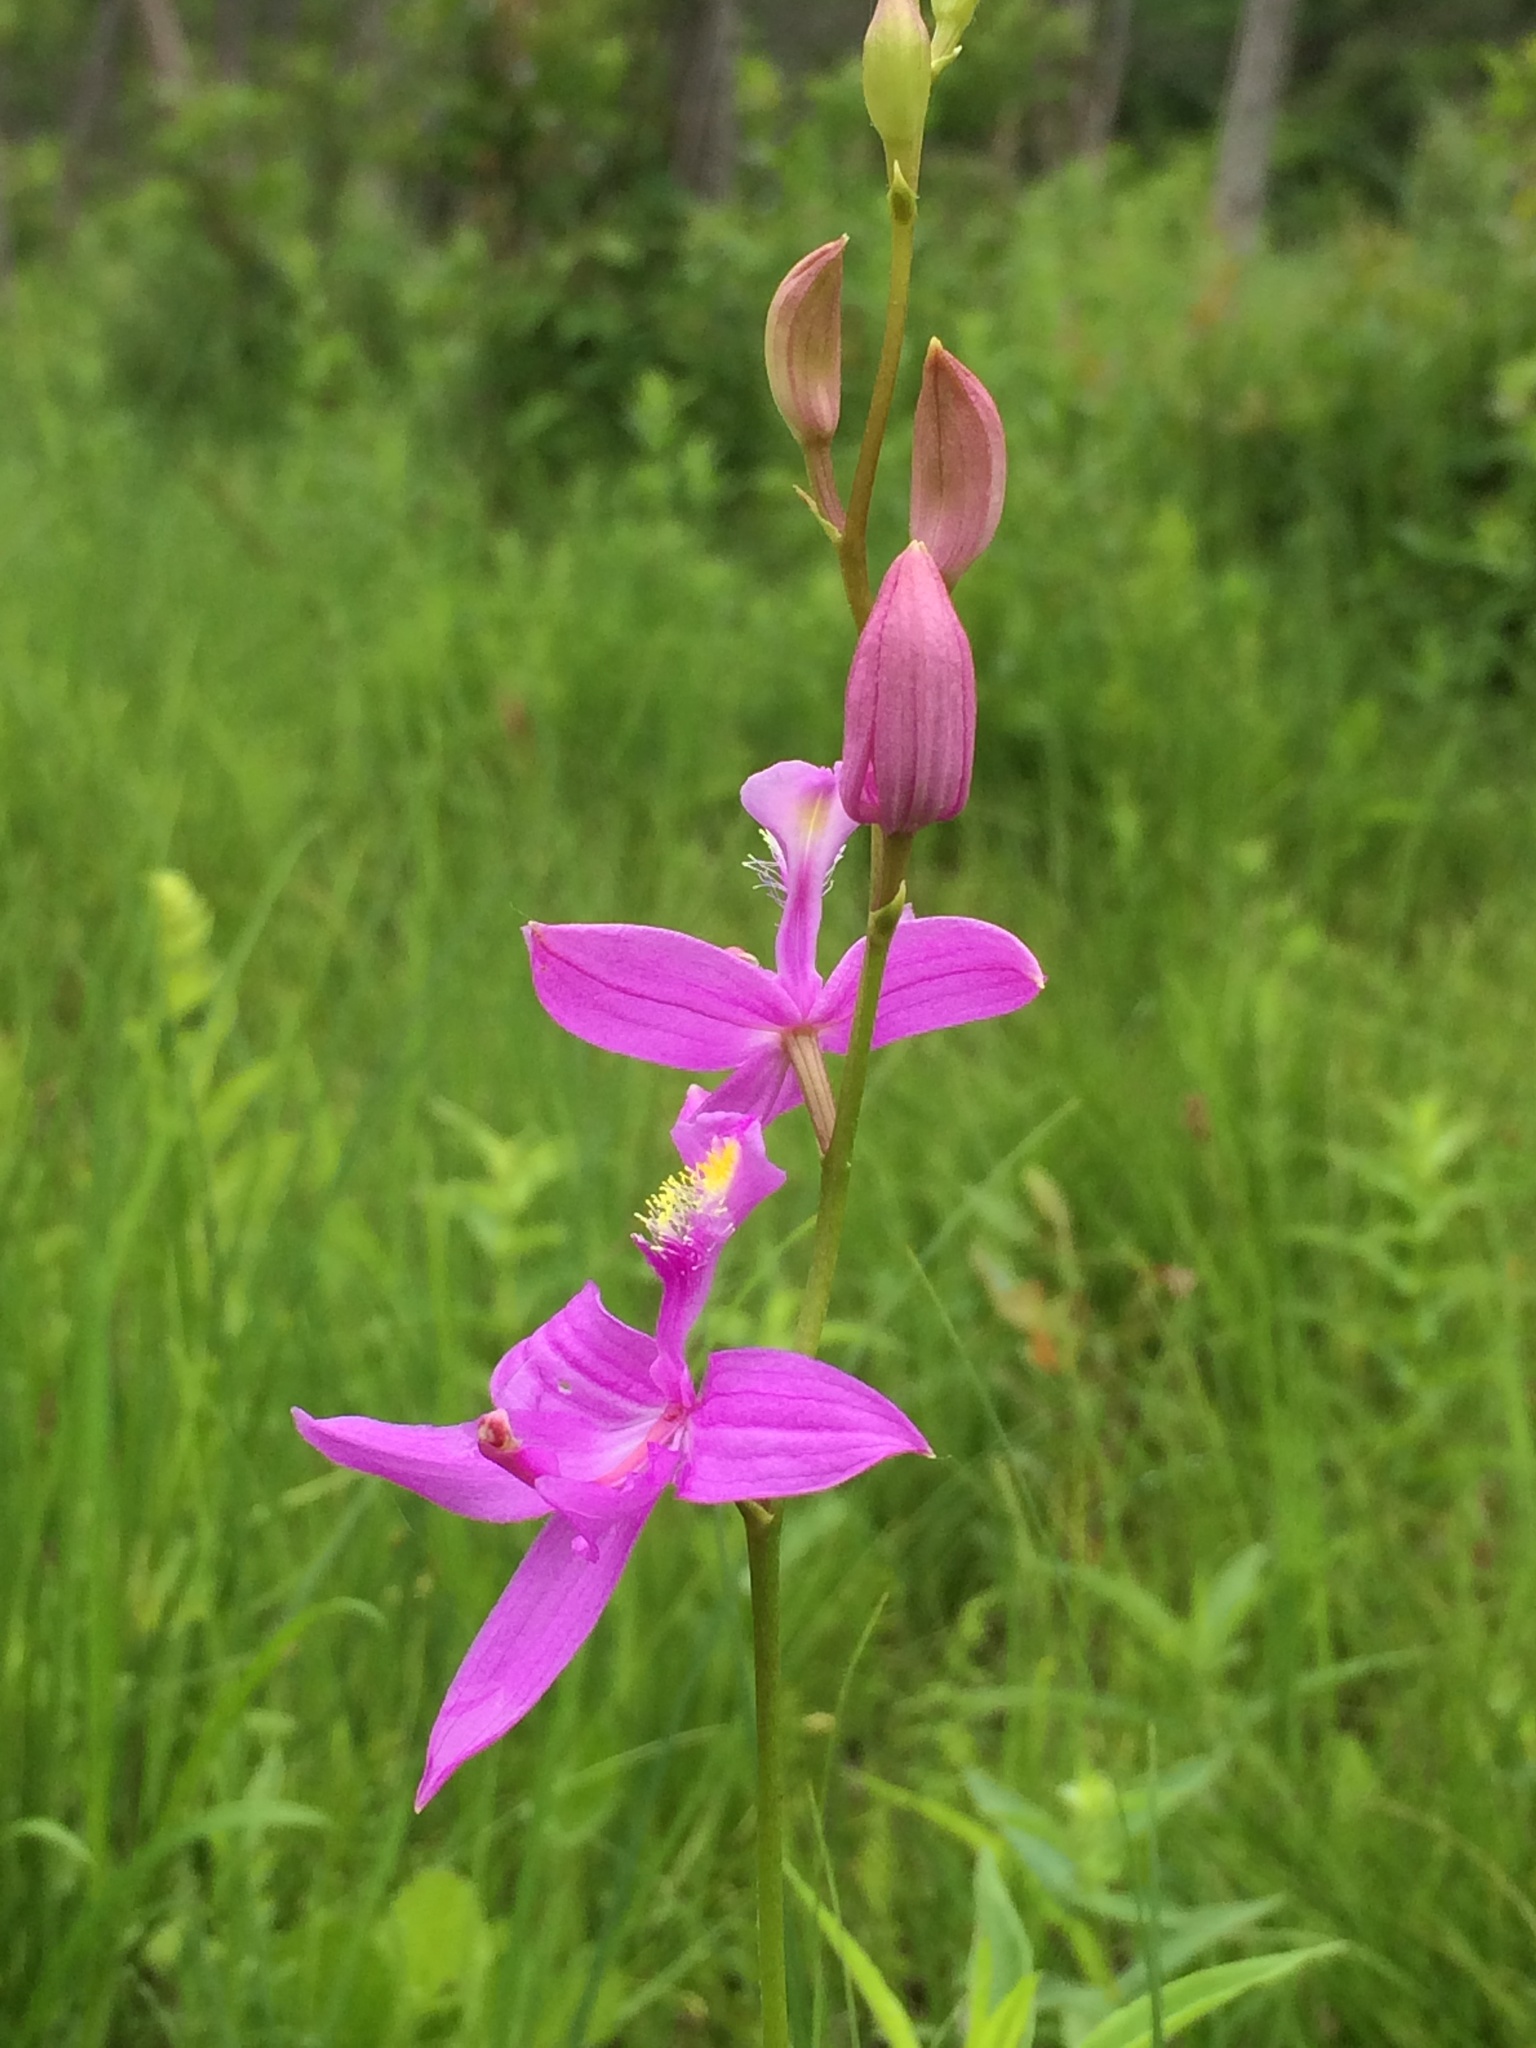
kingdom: Plantae
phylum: Tracheophyta
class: Liliopsida
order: Asparagales
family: Orchidaceae
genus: Calopogon
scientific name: Calopogon tuberosus
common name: Grass-pink
